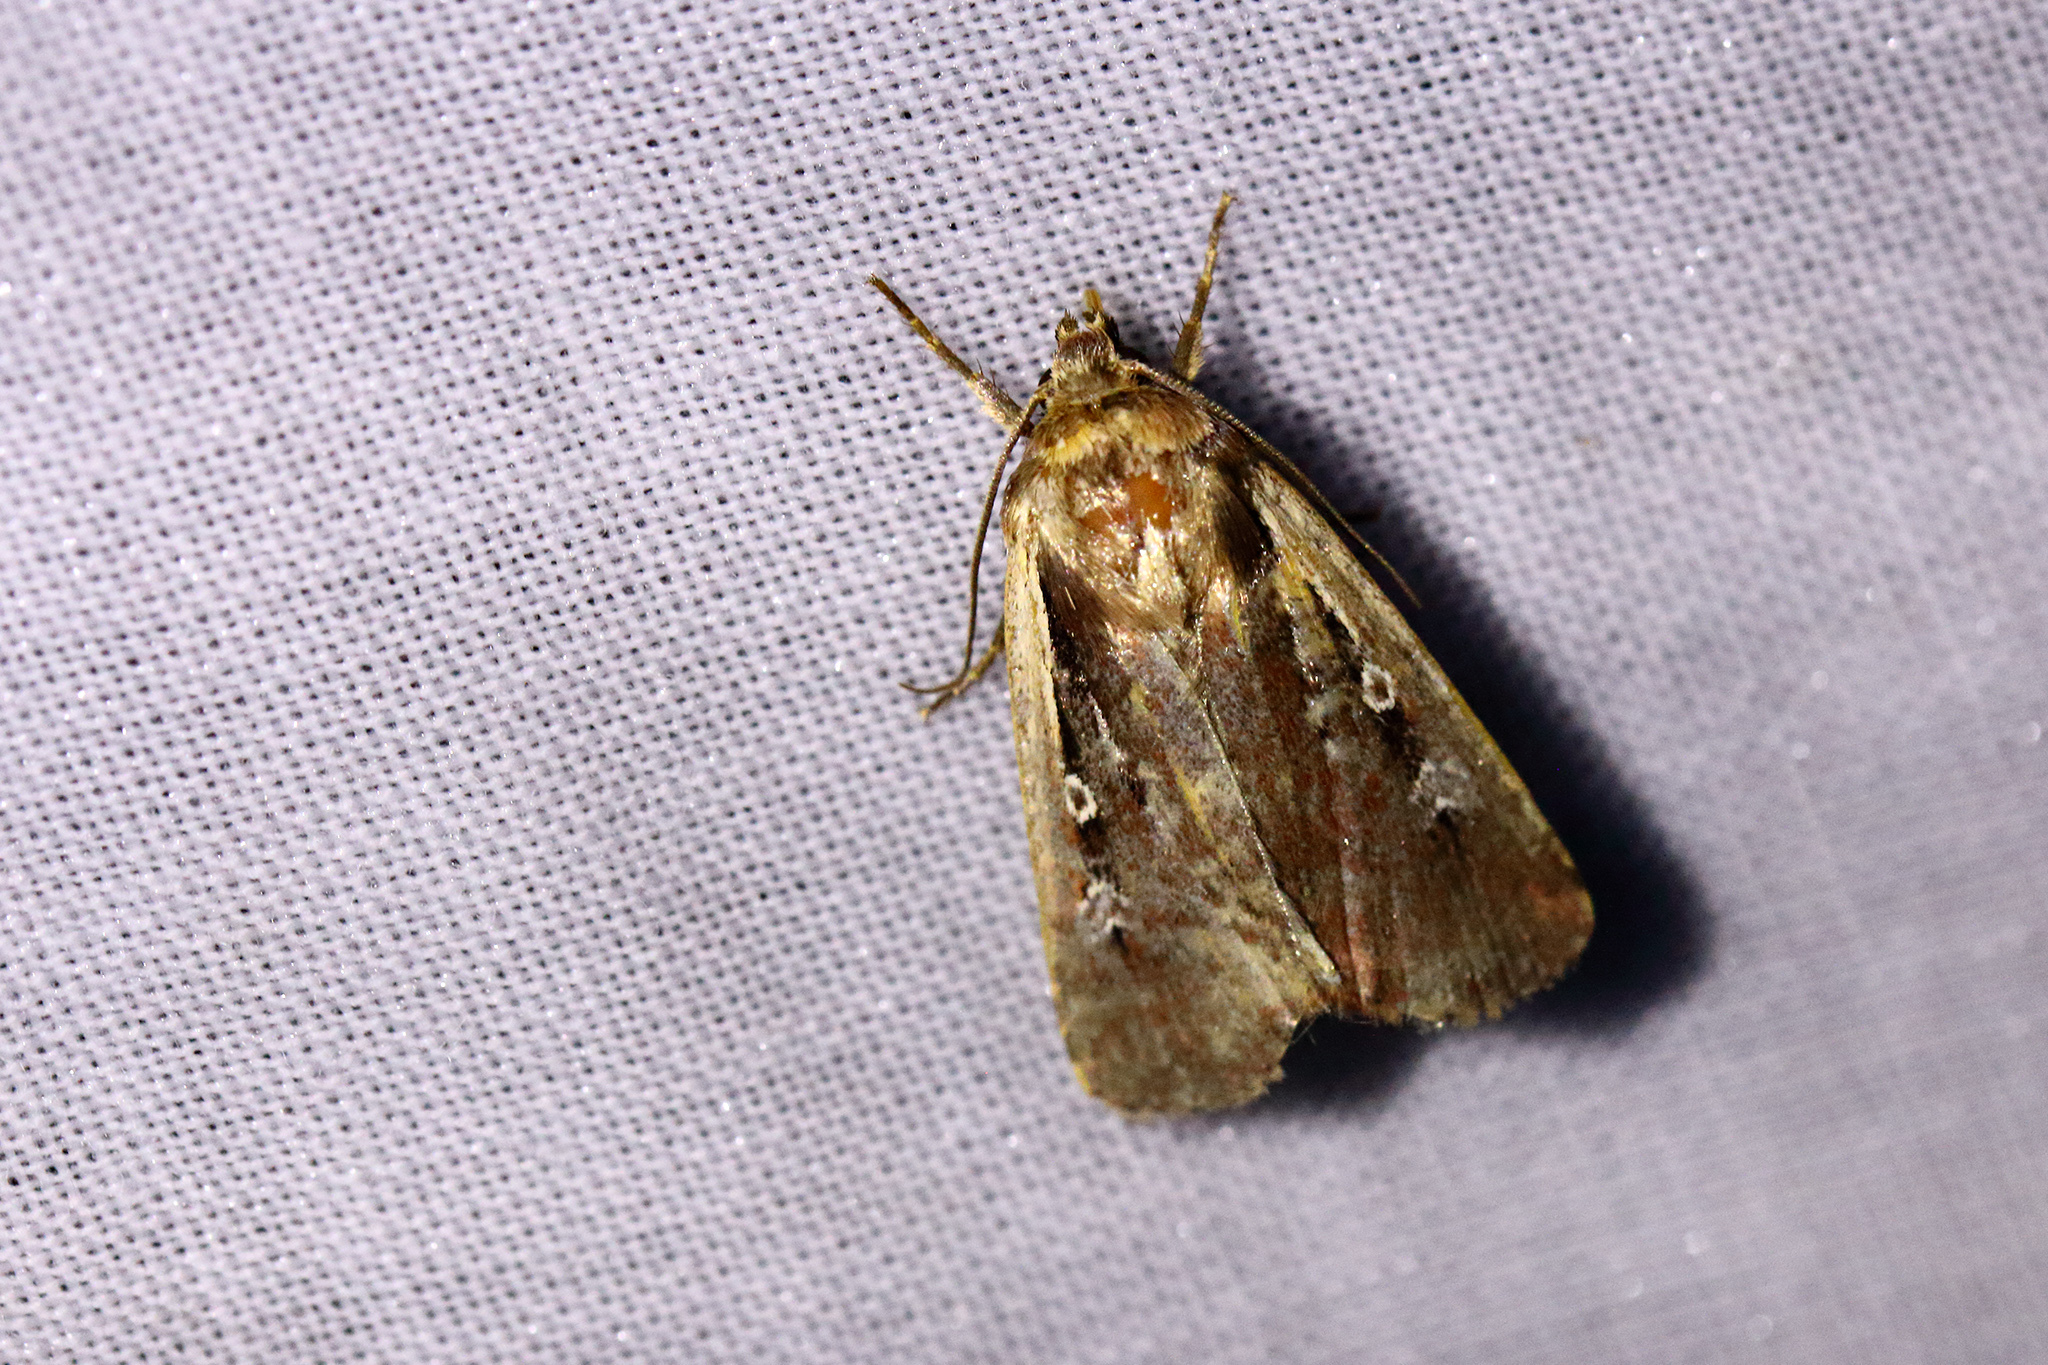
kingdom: Animalia
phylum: Arthropoda
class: Insecta
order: Lepidoptera
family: Noctuidae
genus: Ochropleura
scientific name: Ochropleura plecta
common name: Flame shoulder
